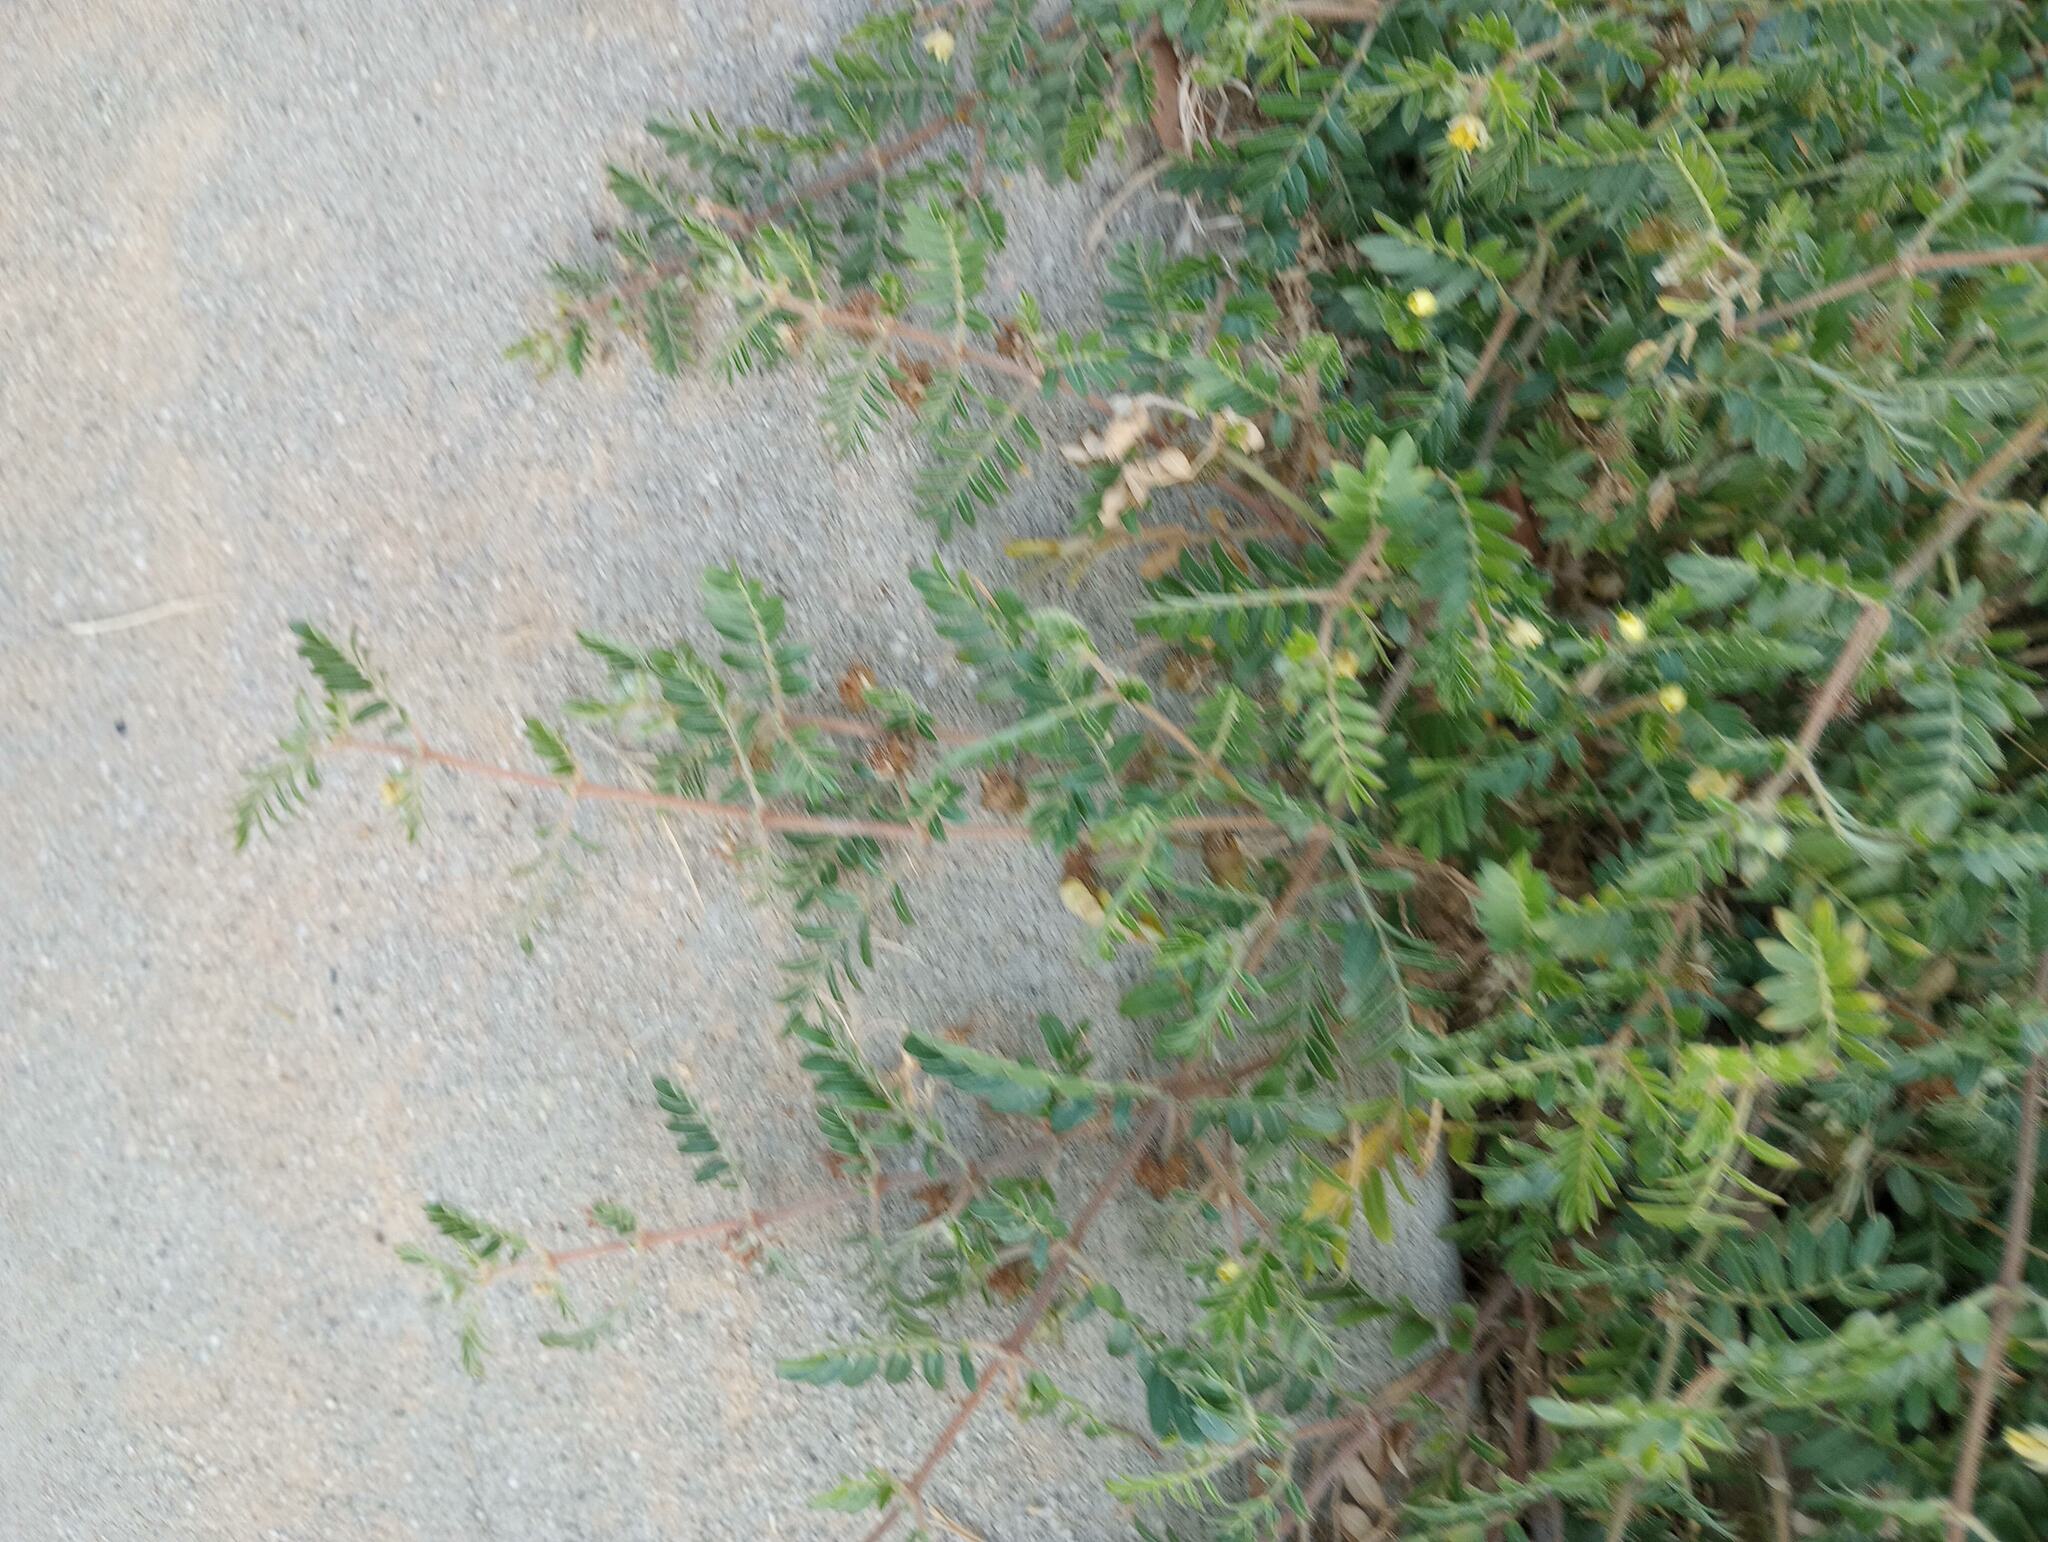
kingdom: Plantae
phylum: Tracheophyta
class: Magnoliopsida
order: Zygophyllales
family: Zygophyllaceae
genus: Tribulus
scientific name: Tribulus terrestris
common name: Puncturevine
